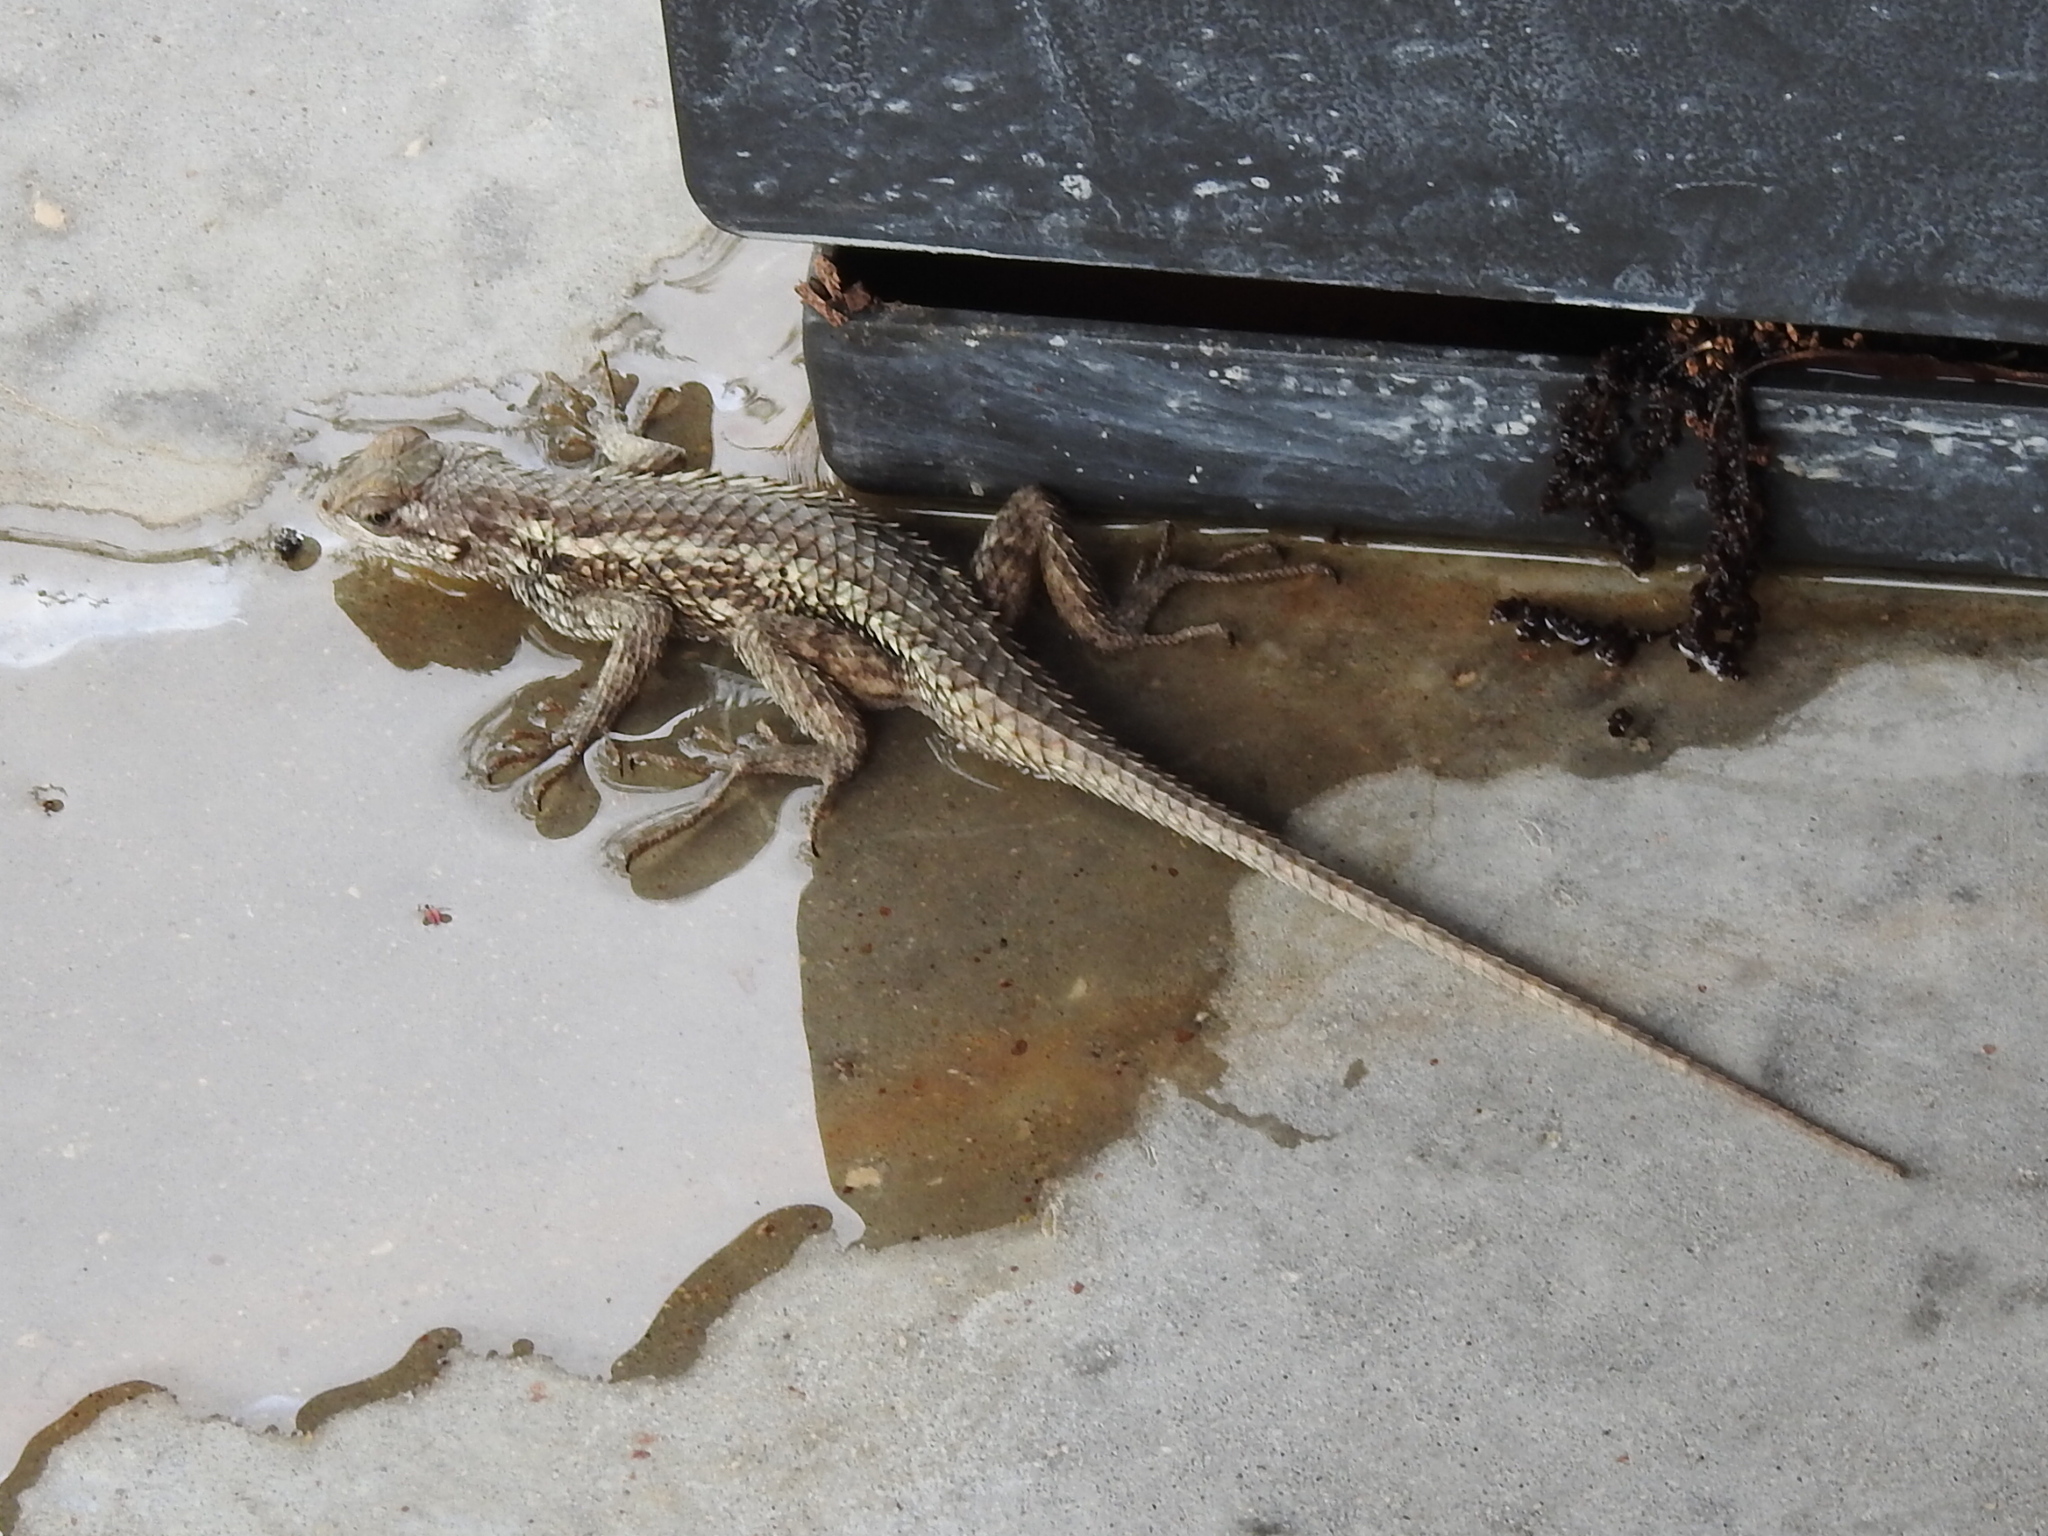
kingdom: Animalia
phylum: Chordata
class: Squamata
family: Phrynosomatidae
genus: Sceloporus
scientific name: Sceloporus olivaceus
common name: Texas spiny lizard
